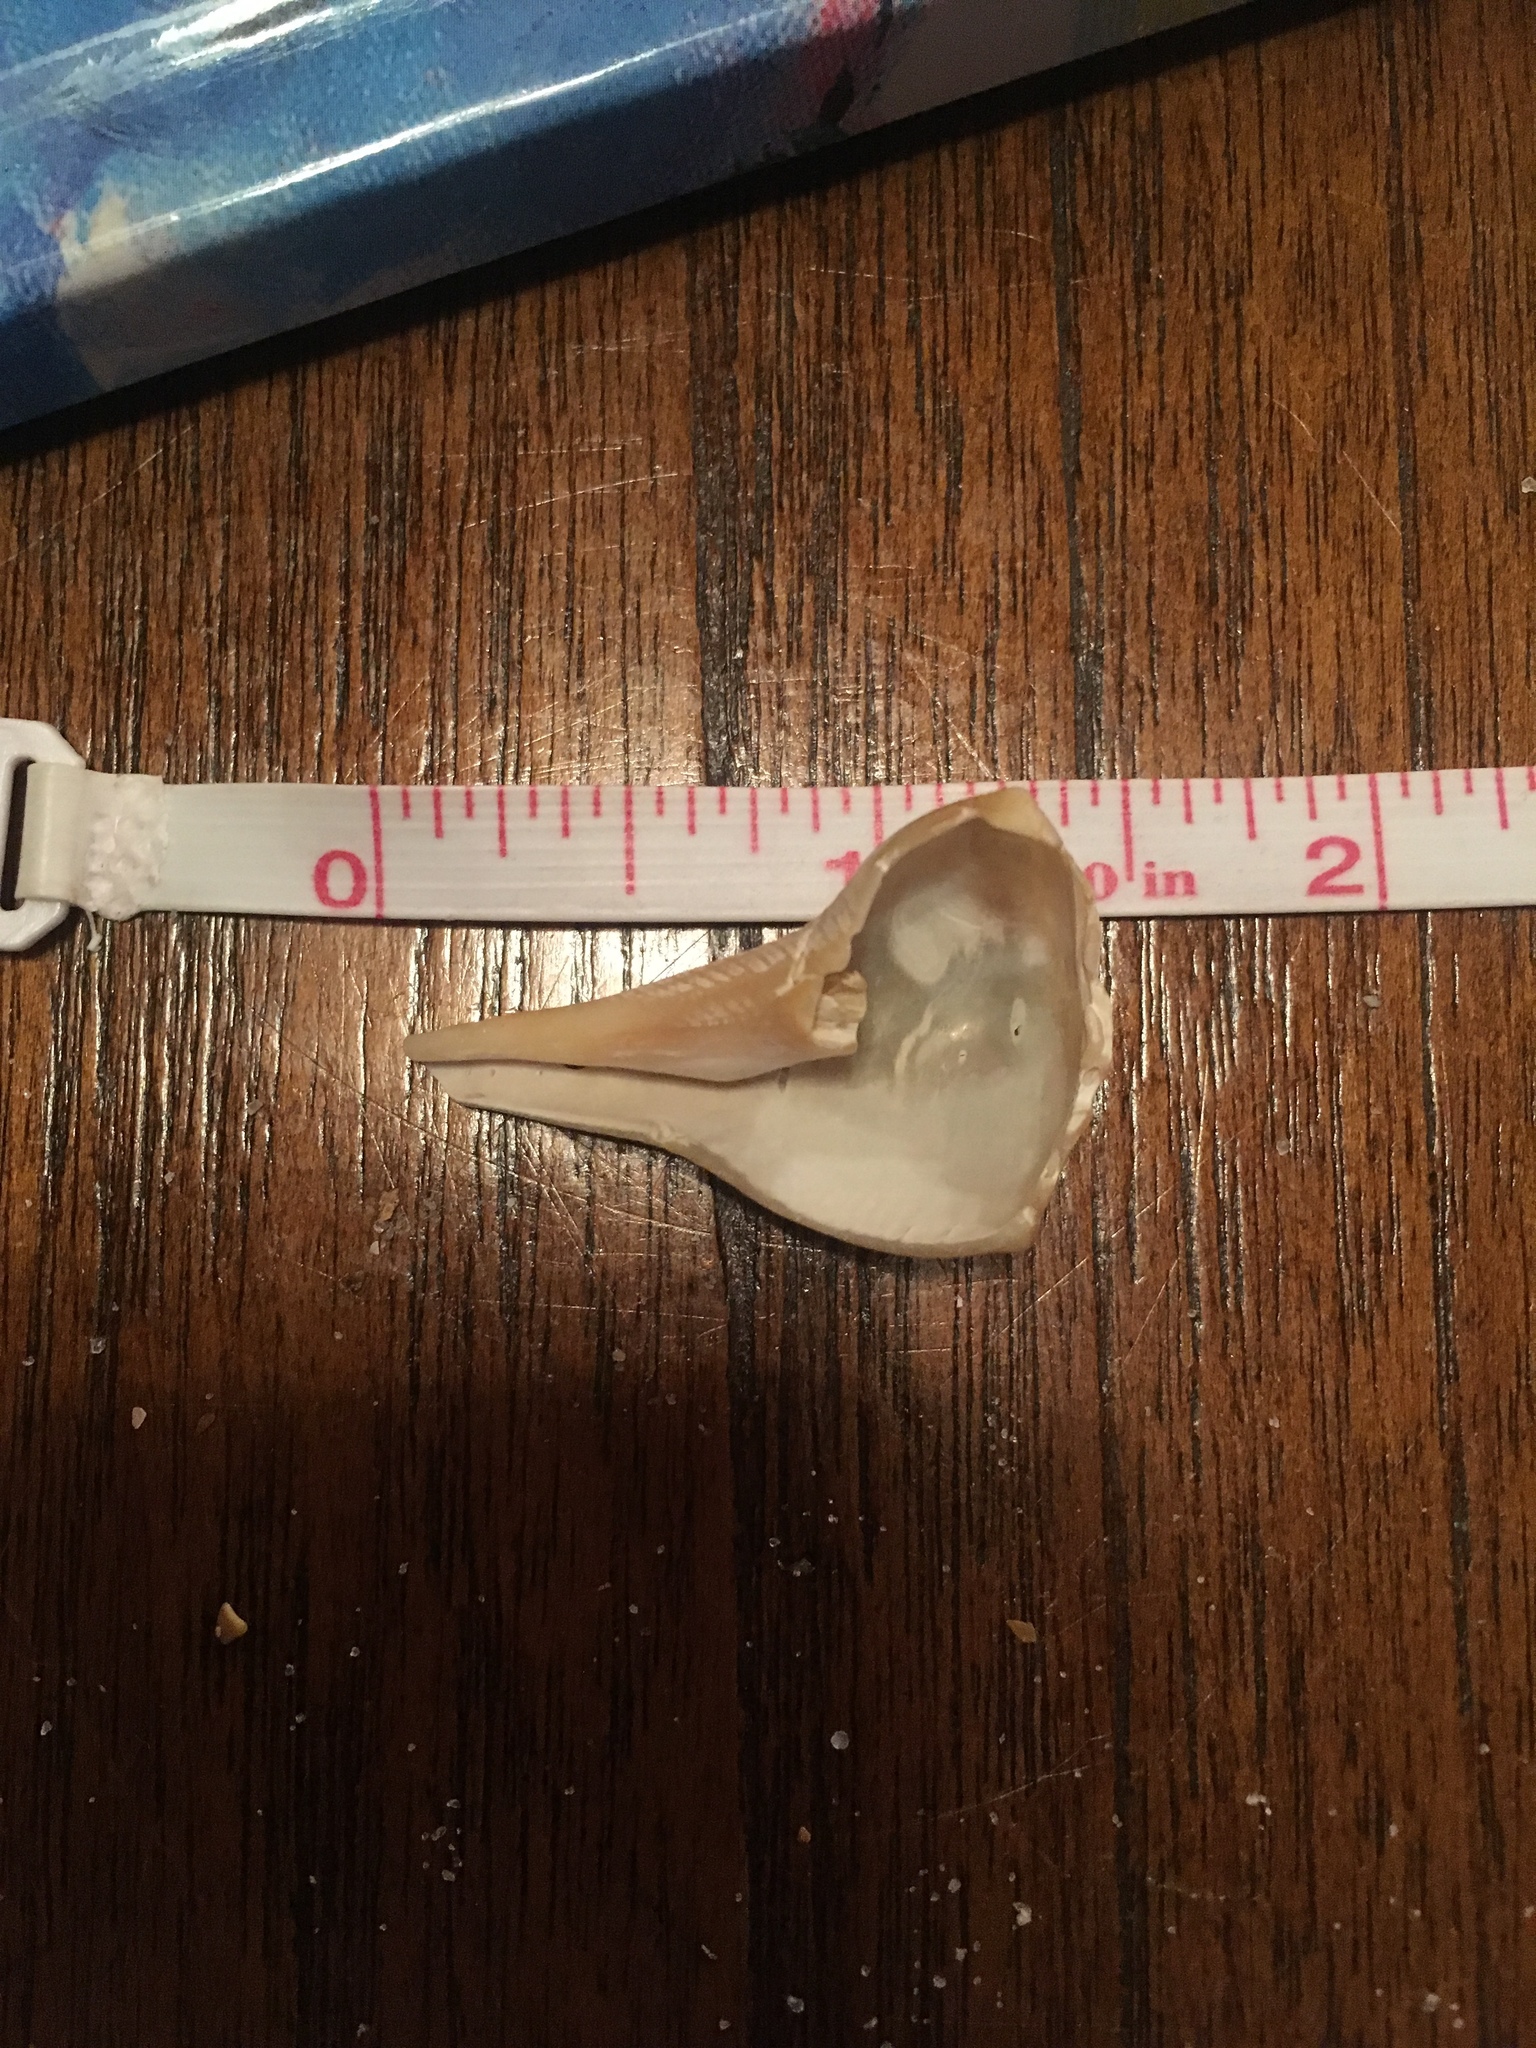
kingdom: Animalia
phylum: Mollusca
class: Gastropoda
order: Neogastropoda
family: Busyconidae
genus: Busycon
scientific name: Busycon carica
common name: Knobbed whelk
